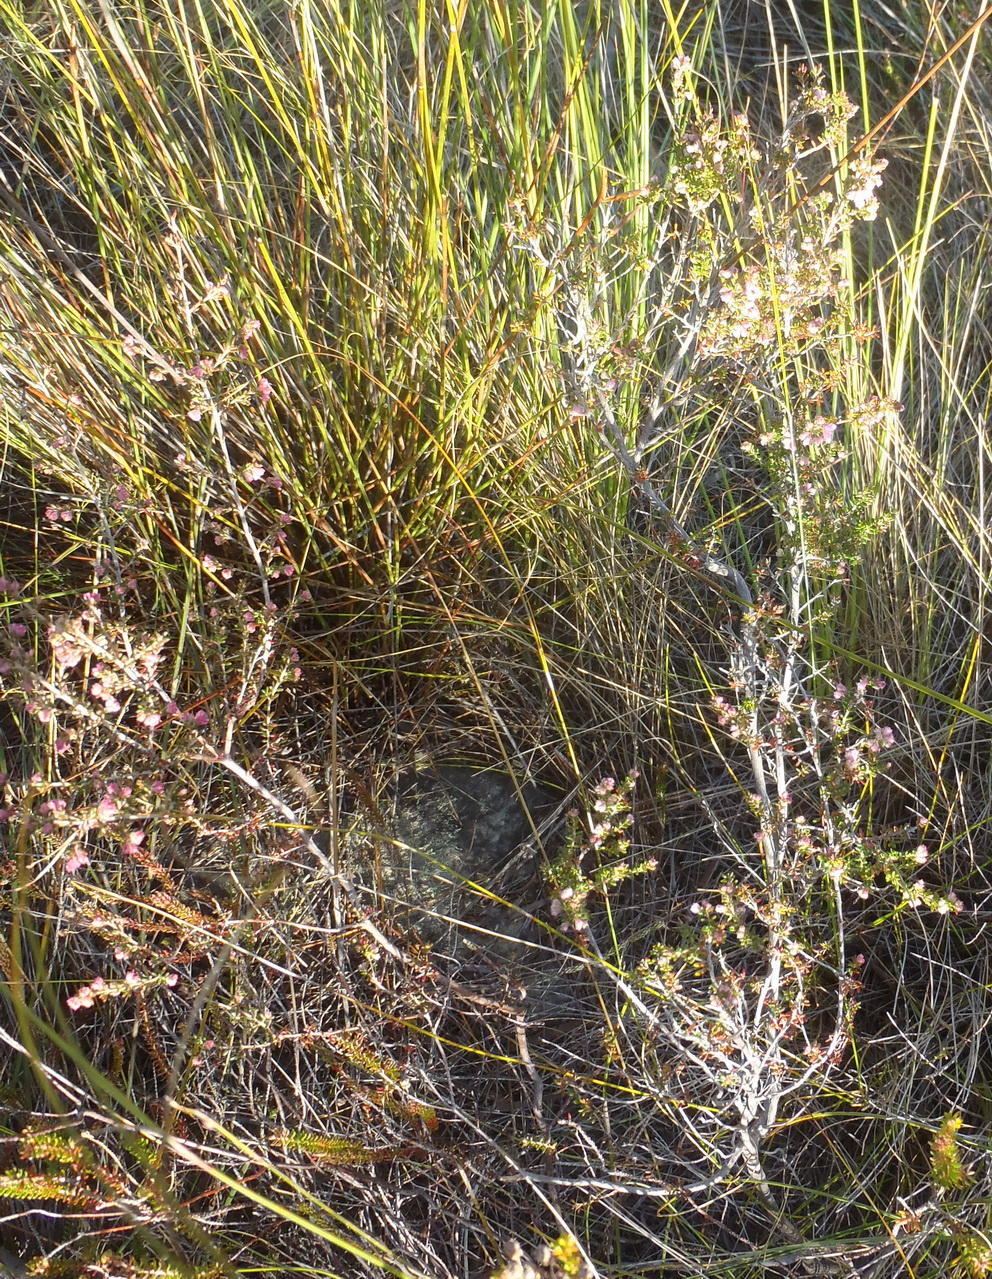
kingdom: Plantae
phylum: Tracheophyta
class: Magnoliopsida
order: Ericales
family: Ericaceae
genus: Erica
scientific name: Erica melanthera
